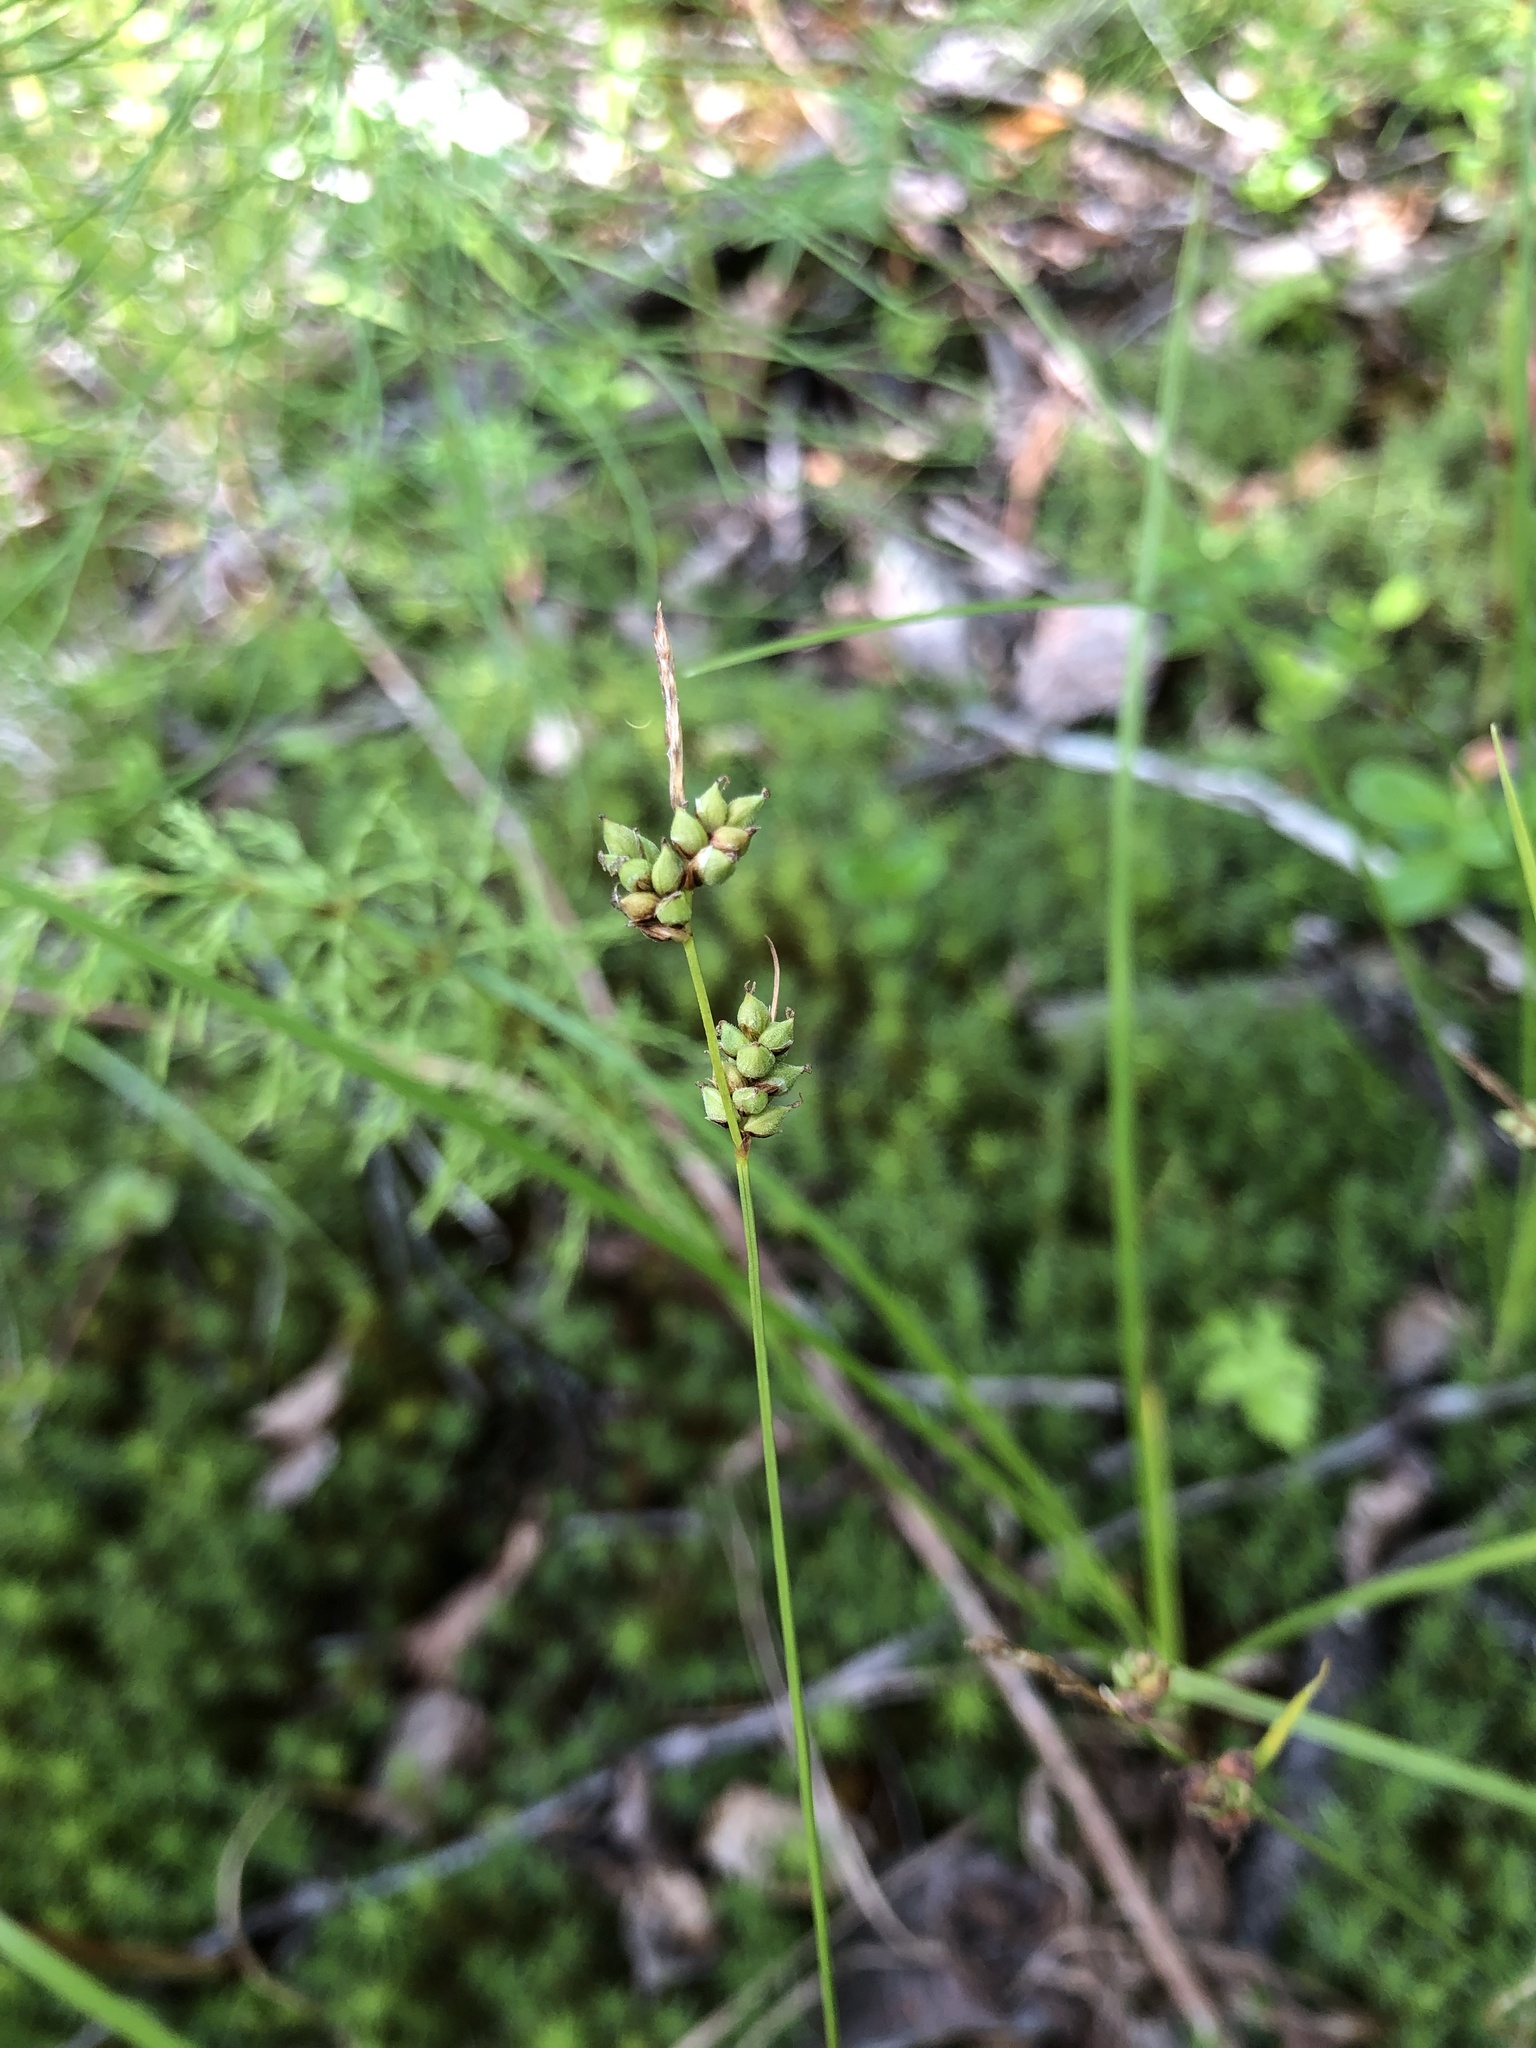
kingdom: Plantae
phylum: Tracheophyta
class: Liliopsida
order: Poales
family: Cyperaceae
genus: Carex
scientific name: Carex globularis
